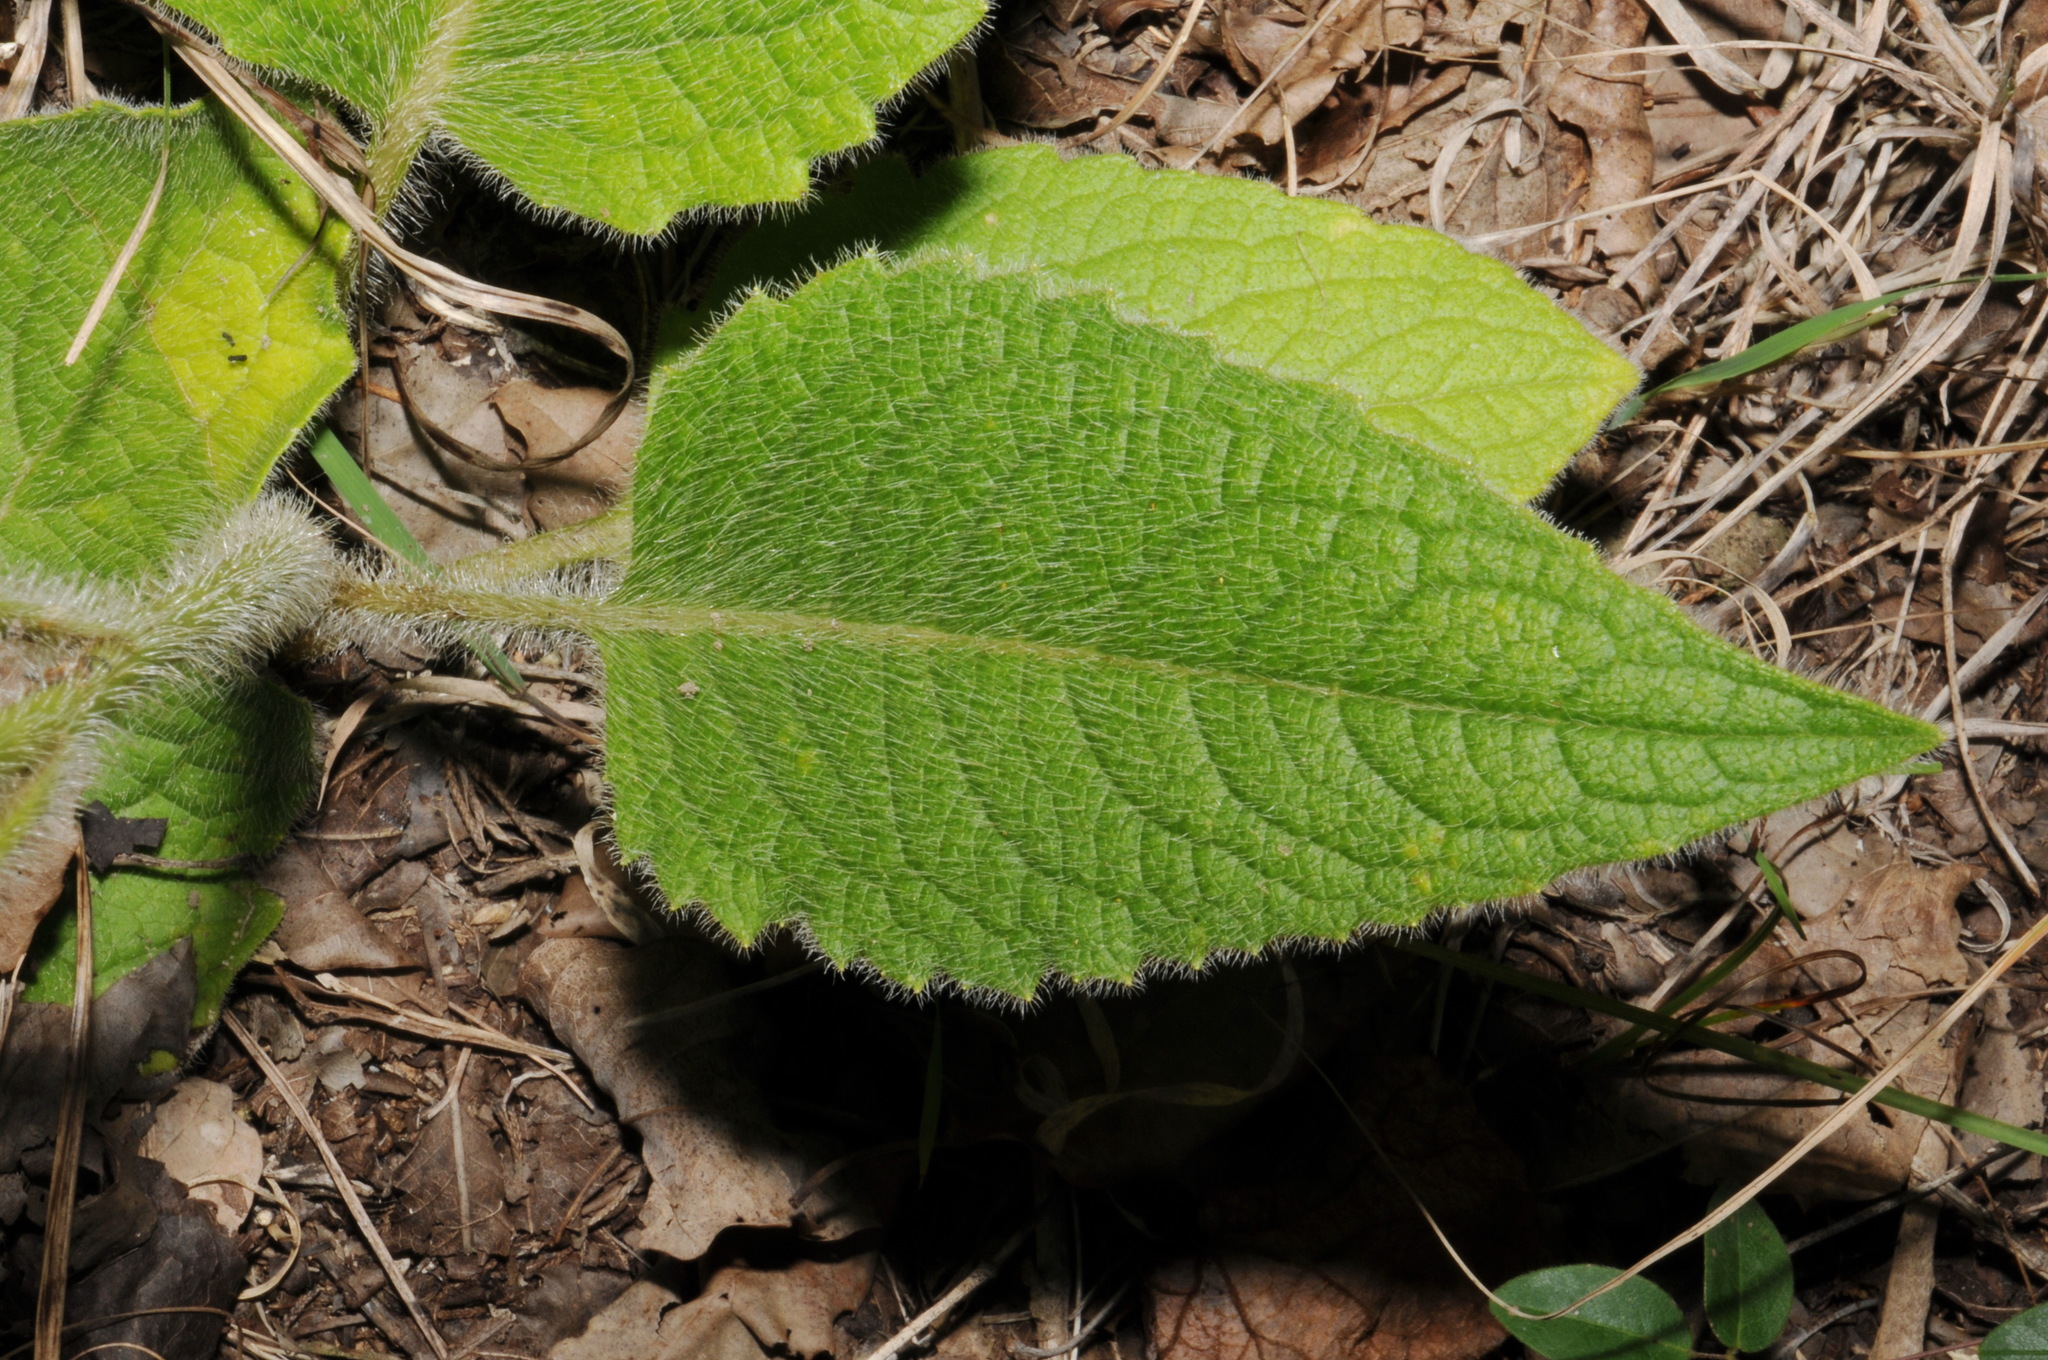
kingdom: Plantae
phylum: Tracheophyta
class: Magnoliopsida
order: Asterales
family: Asteraceae
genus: Silphium
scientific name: Silphium mohrii
